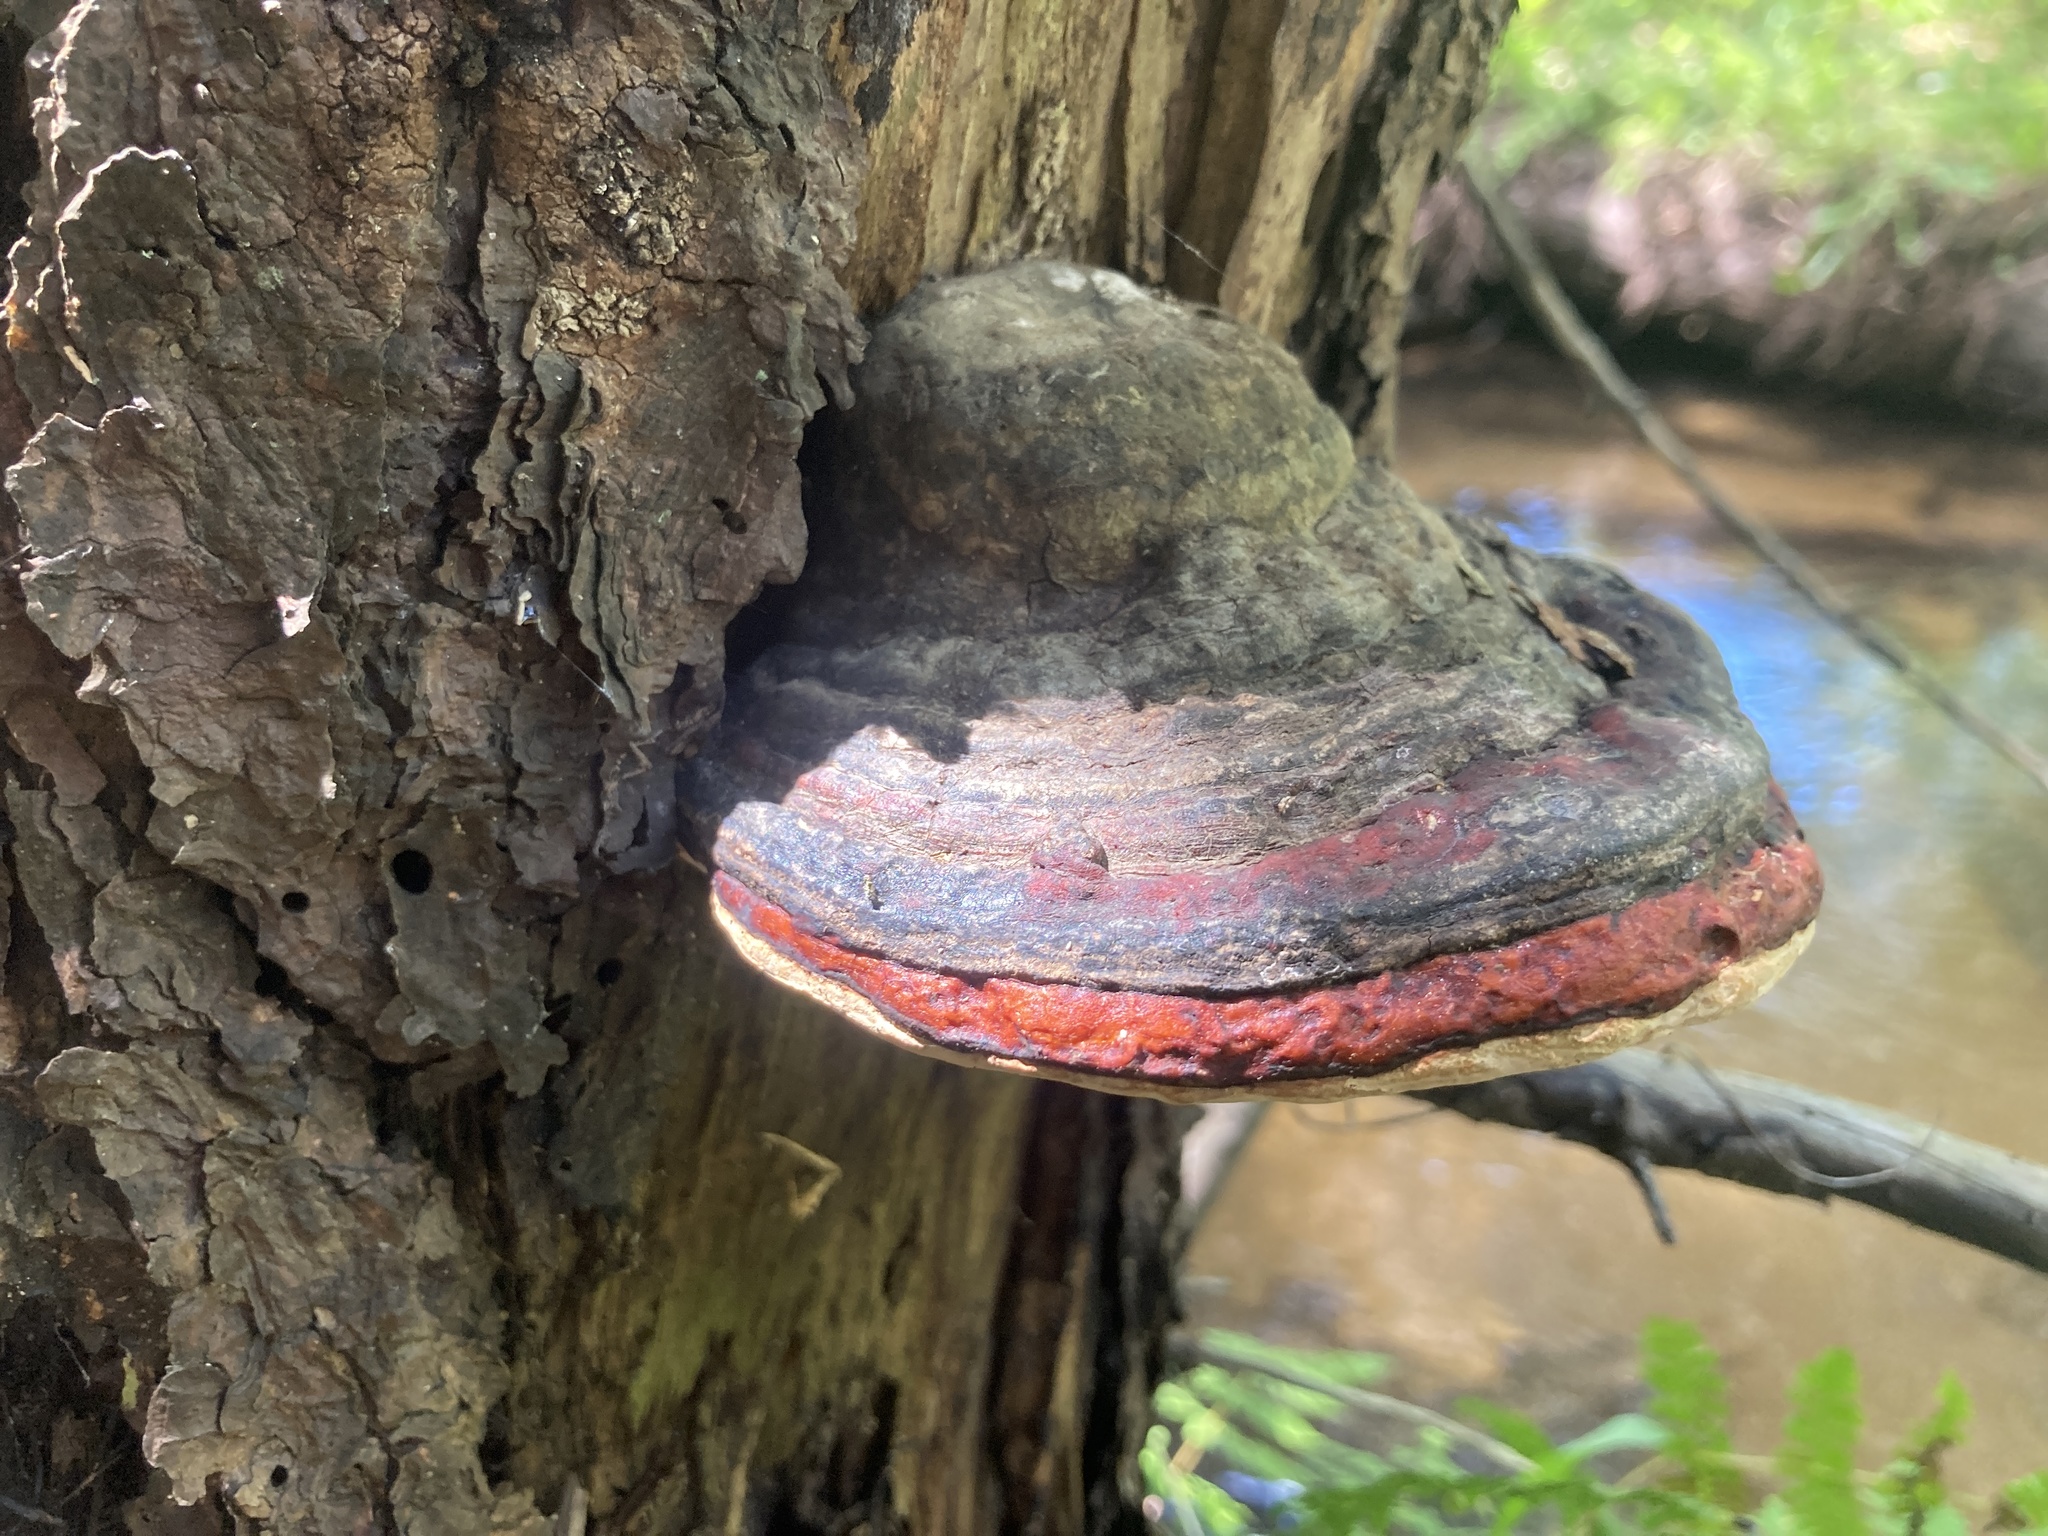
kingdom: Fungi
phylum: Basidiomycota
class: Agaricomycetes
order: Polyporales
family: Fomitopsidaceae
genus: Fomitopsis
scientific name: Fomitopsis mounceae
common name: Northern red belt
